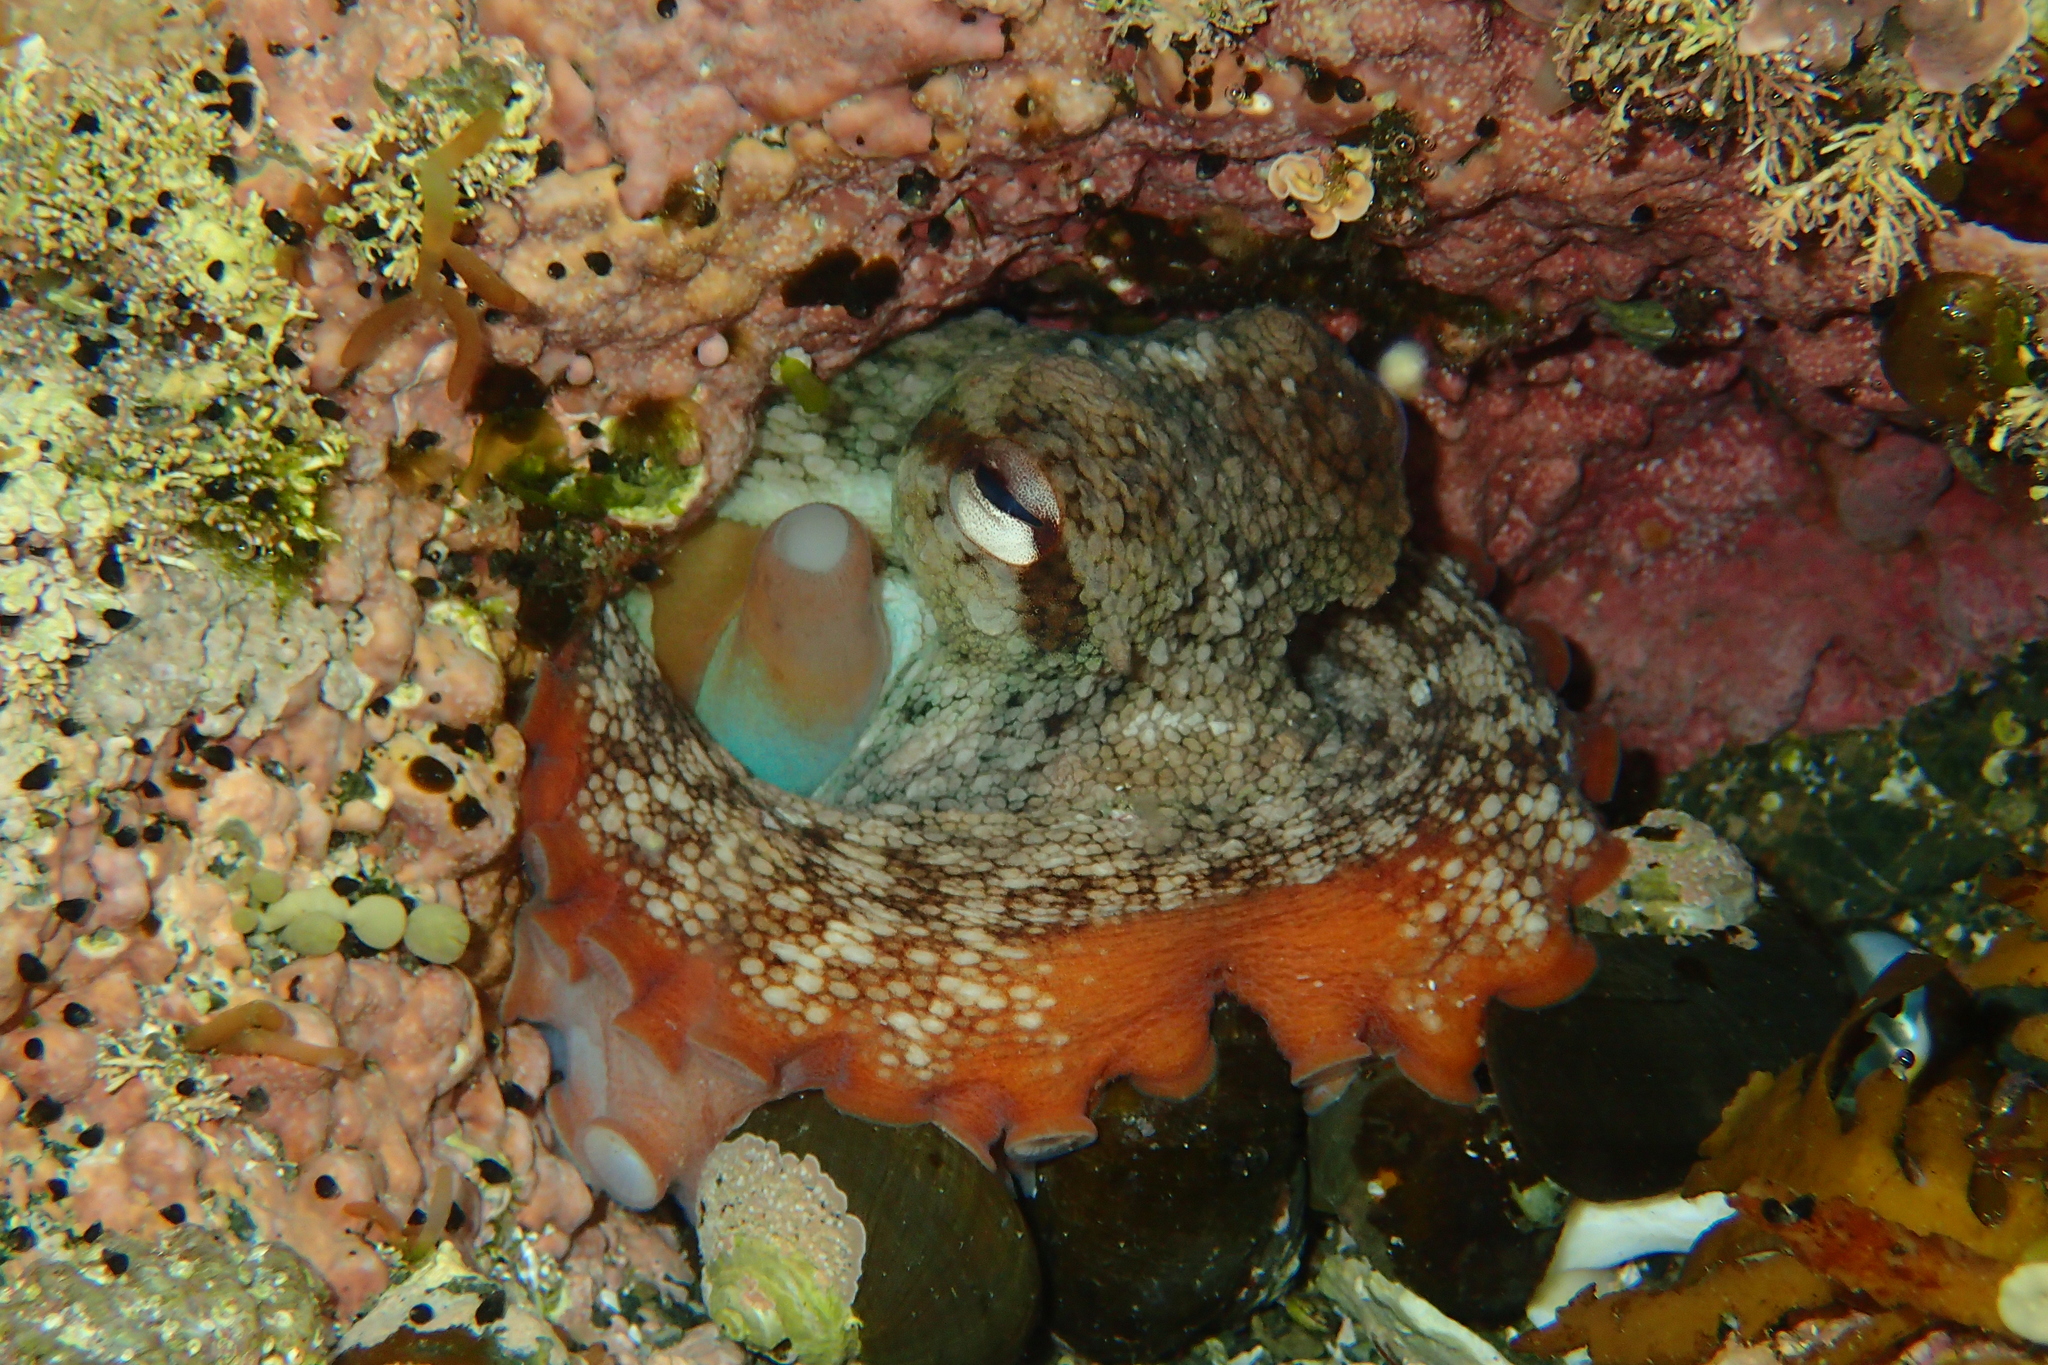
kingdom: Animalia
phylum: Mollusca
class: Cephalopoda
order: Octopoda
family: Octopodidae
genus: Octopus
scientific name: Octopus tetricus
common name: Sydney octopus
